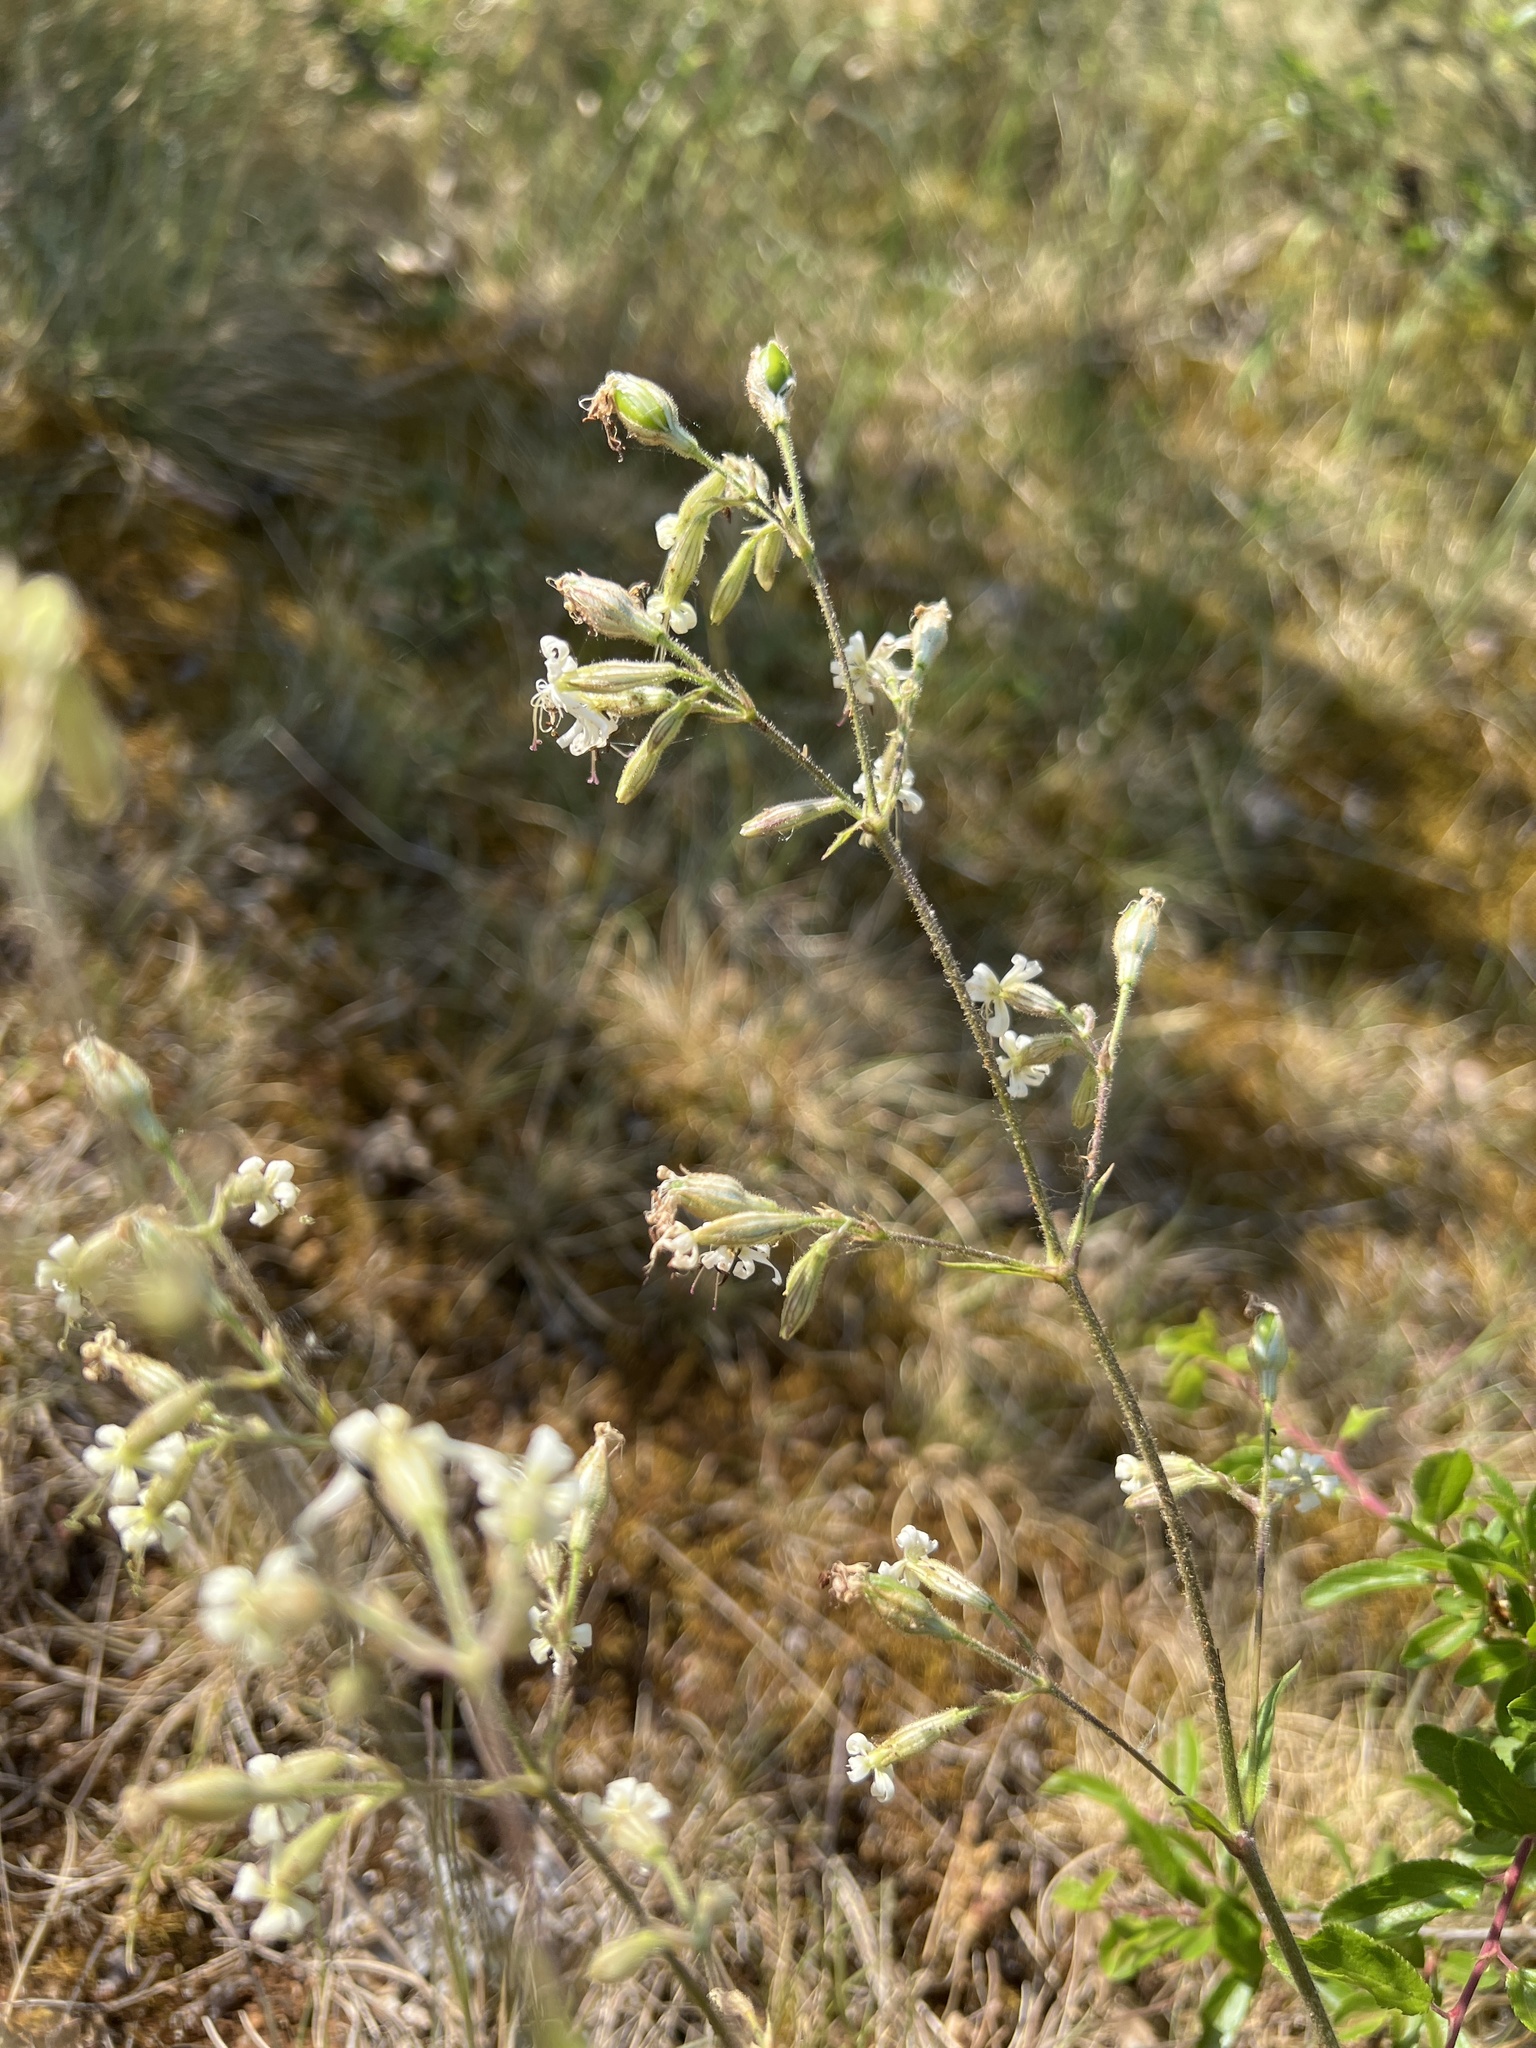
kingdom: Plantae
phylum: Tracheophyta
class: Magnoliopsida
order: Caryophyllales
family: Caryophyllaceae
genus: Silene
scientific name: Silene nutans
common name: Nottingham catchfly
